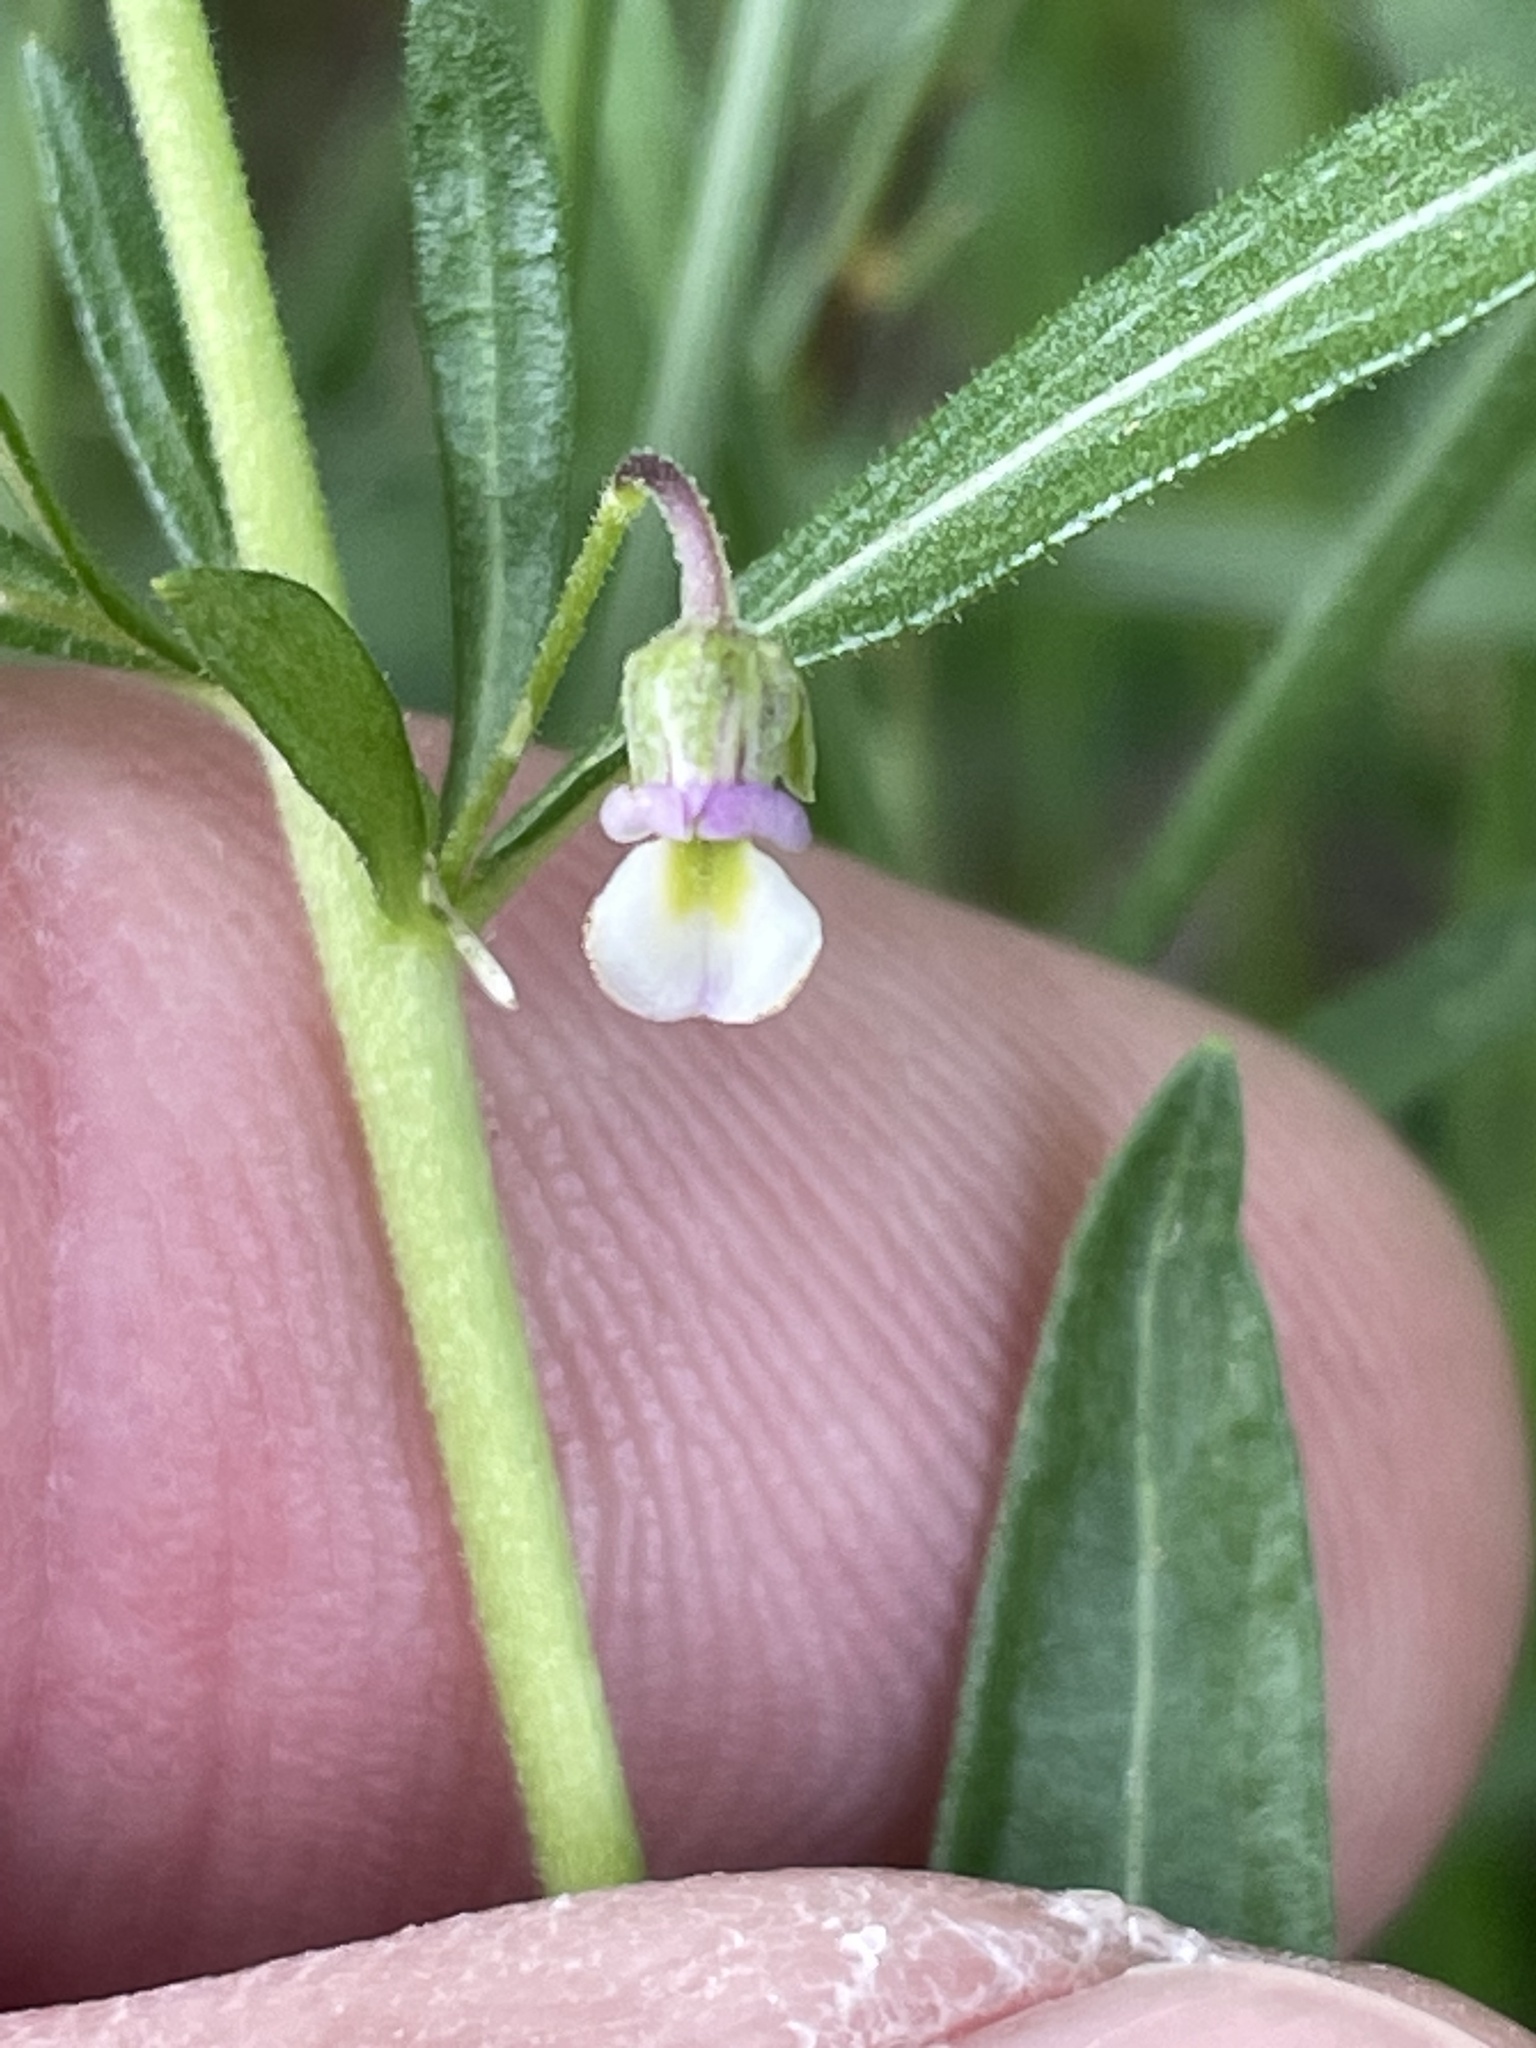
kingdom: Plantae
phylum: Tracheophyta
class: Magnoliopsida
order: Malpighiales
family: Violaceae
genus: Pombalia
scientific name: Pombalia verticillata
